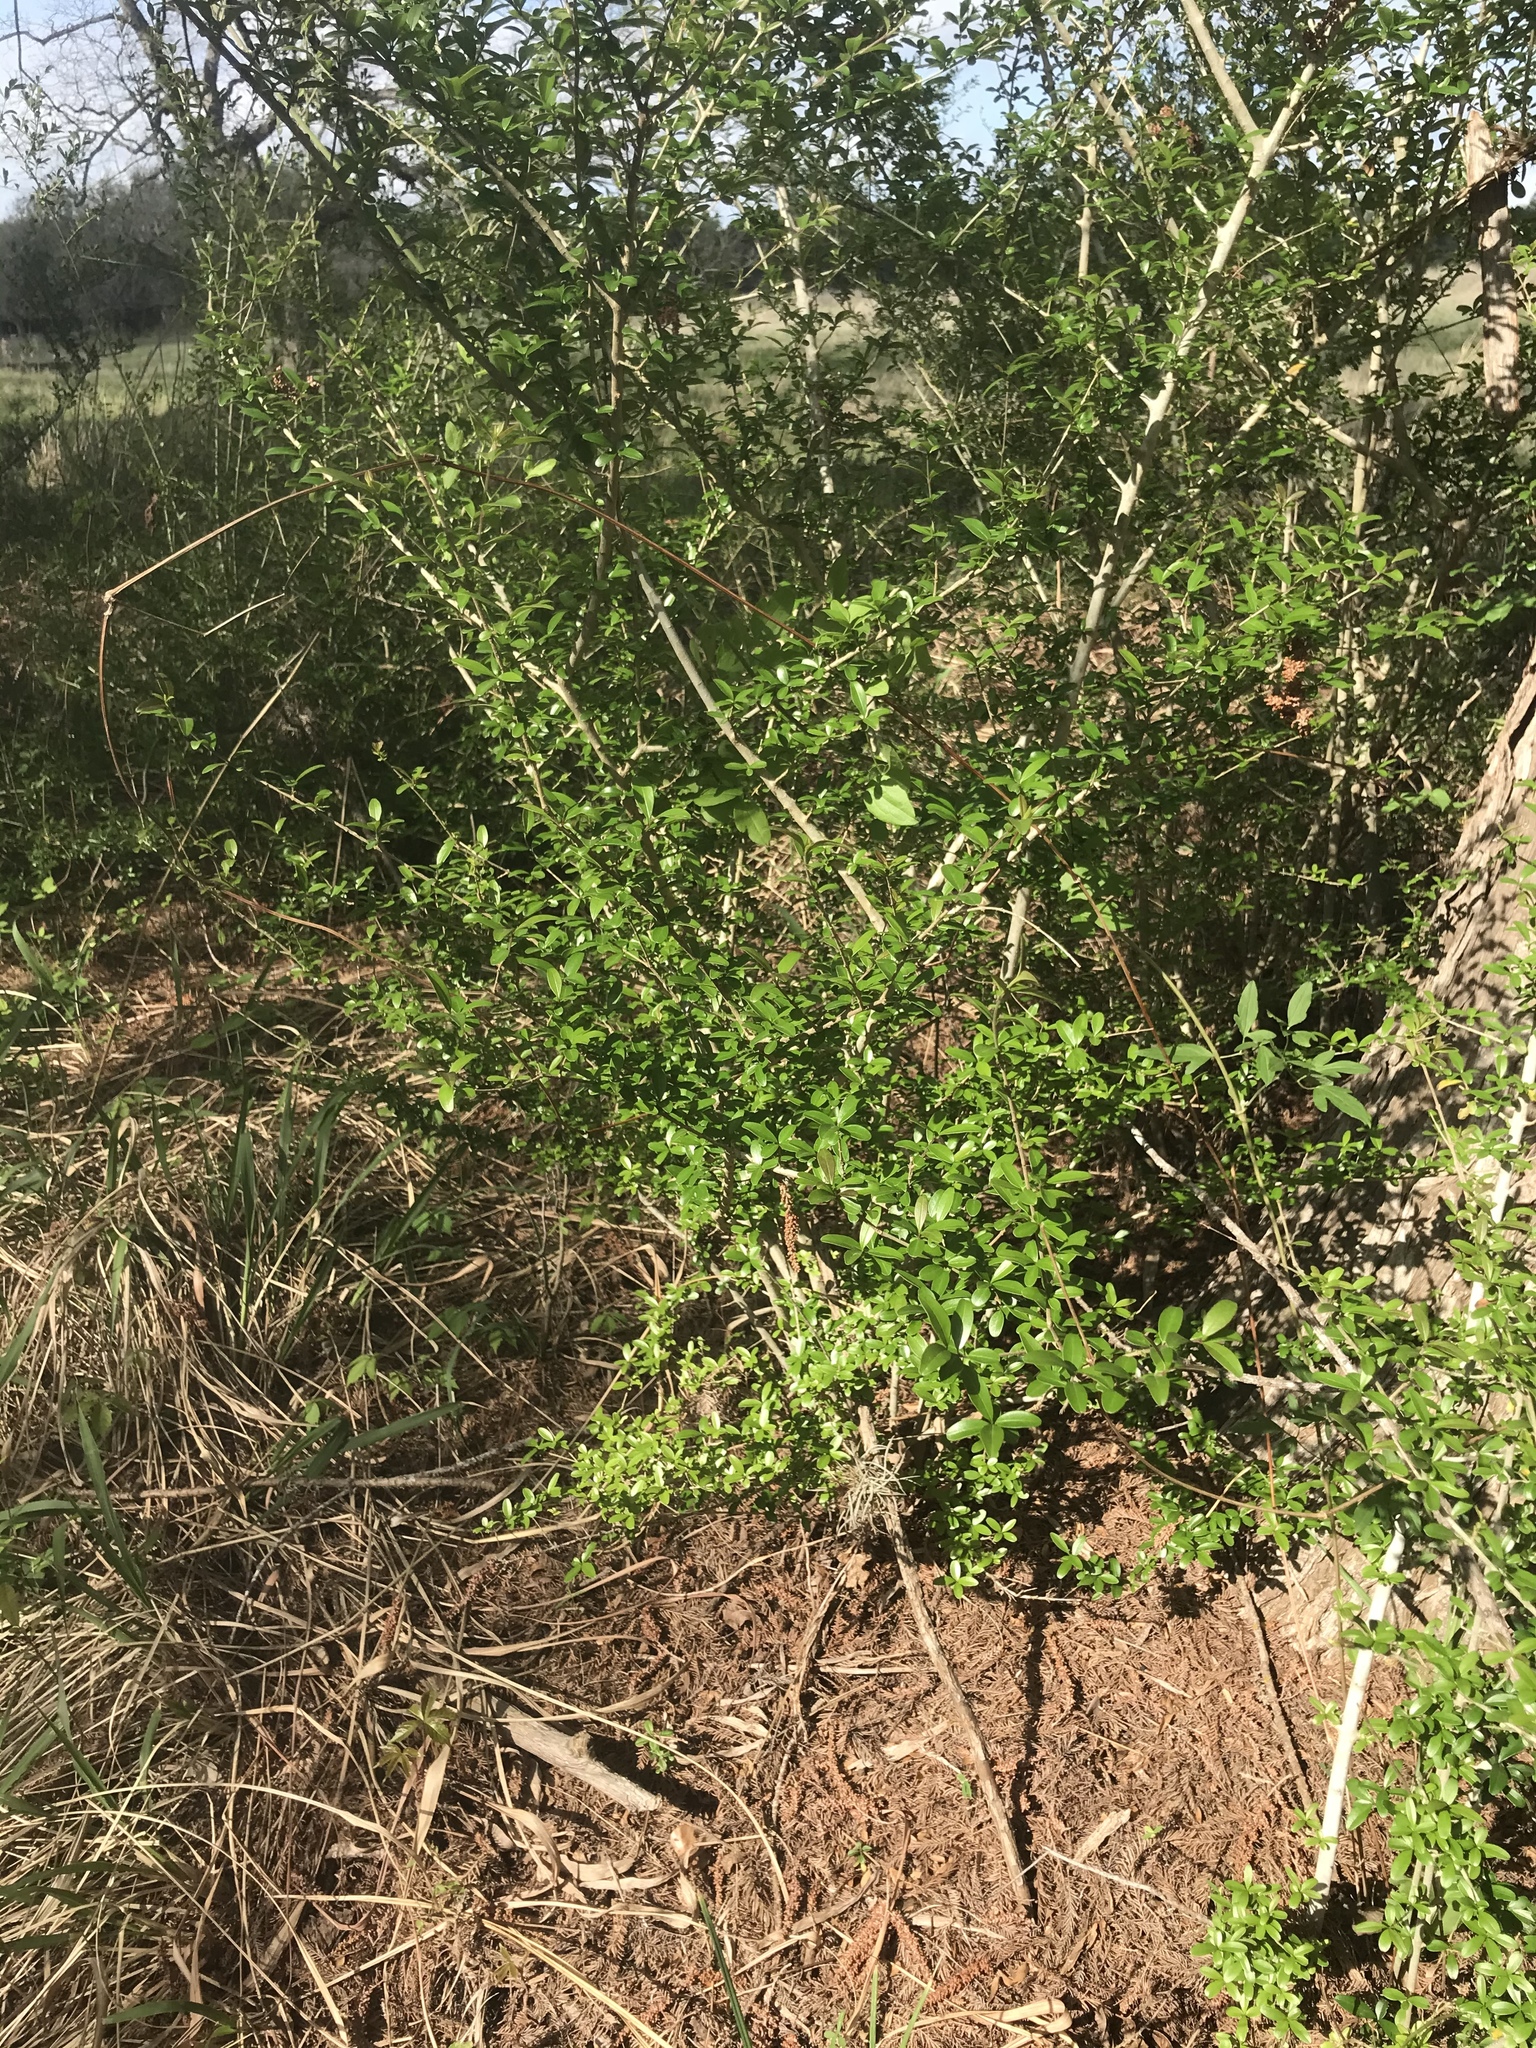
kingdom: Plantae
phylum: Tracheophyta
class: Magnoliopsida
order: Lamiales
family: Oleaceae
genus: Ligustrum
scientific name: Ligustrum quihoui
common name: Waxyleaf privet
